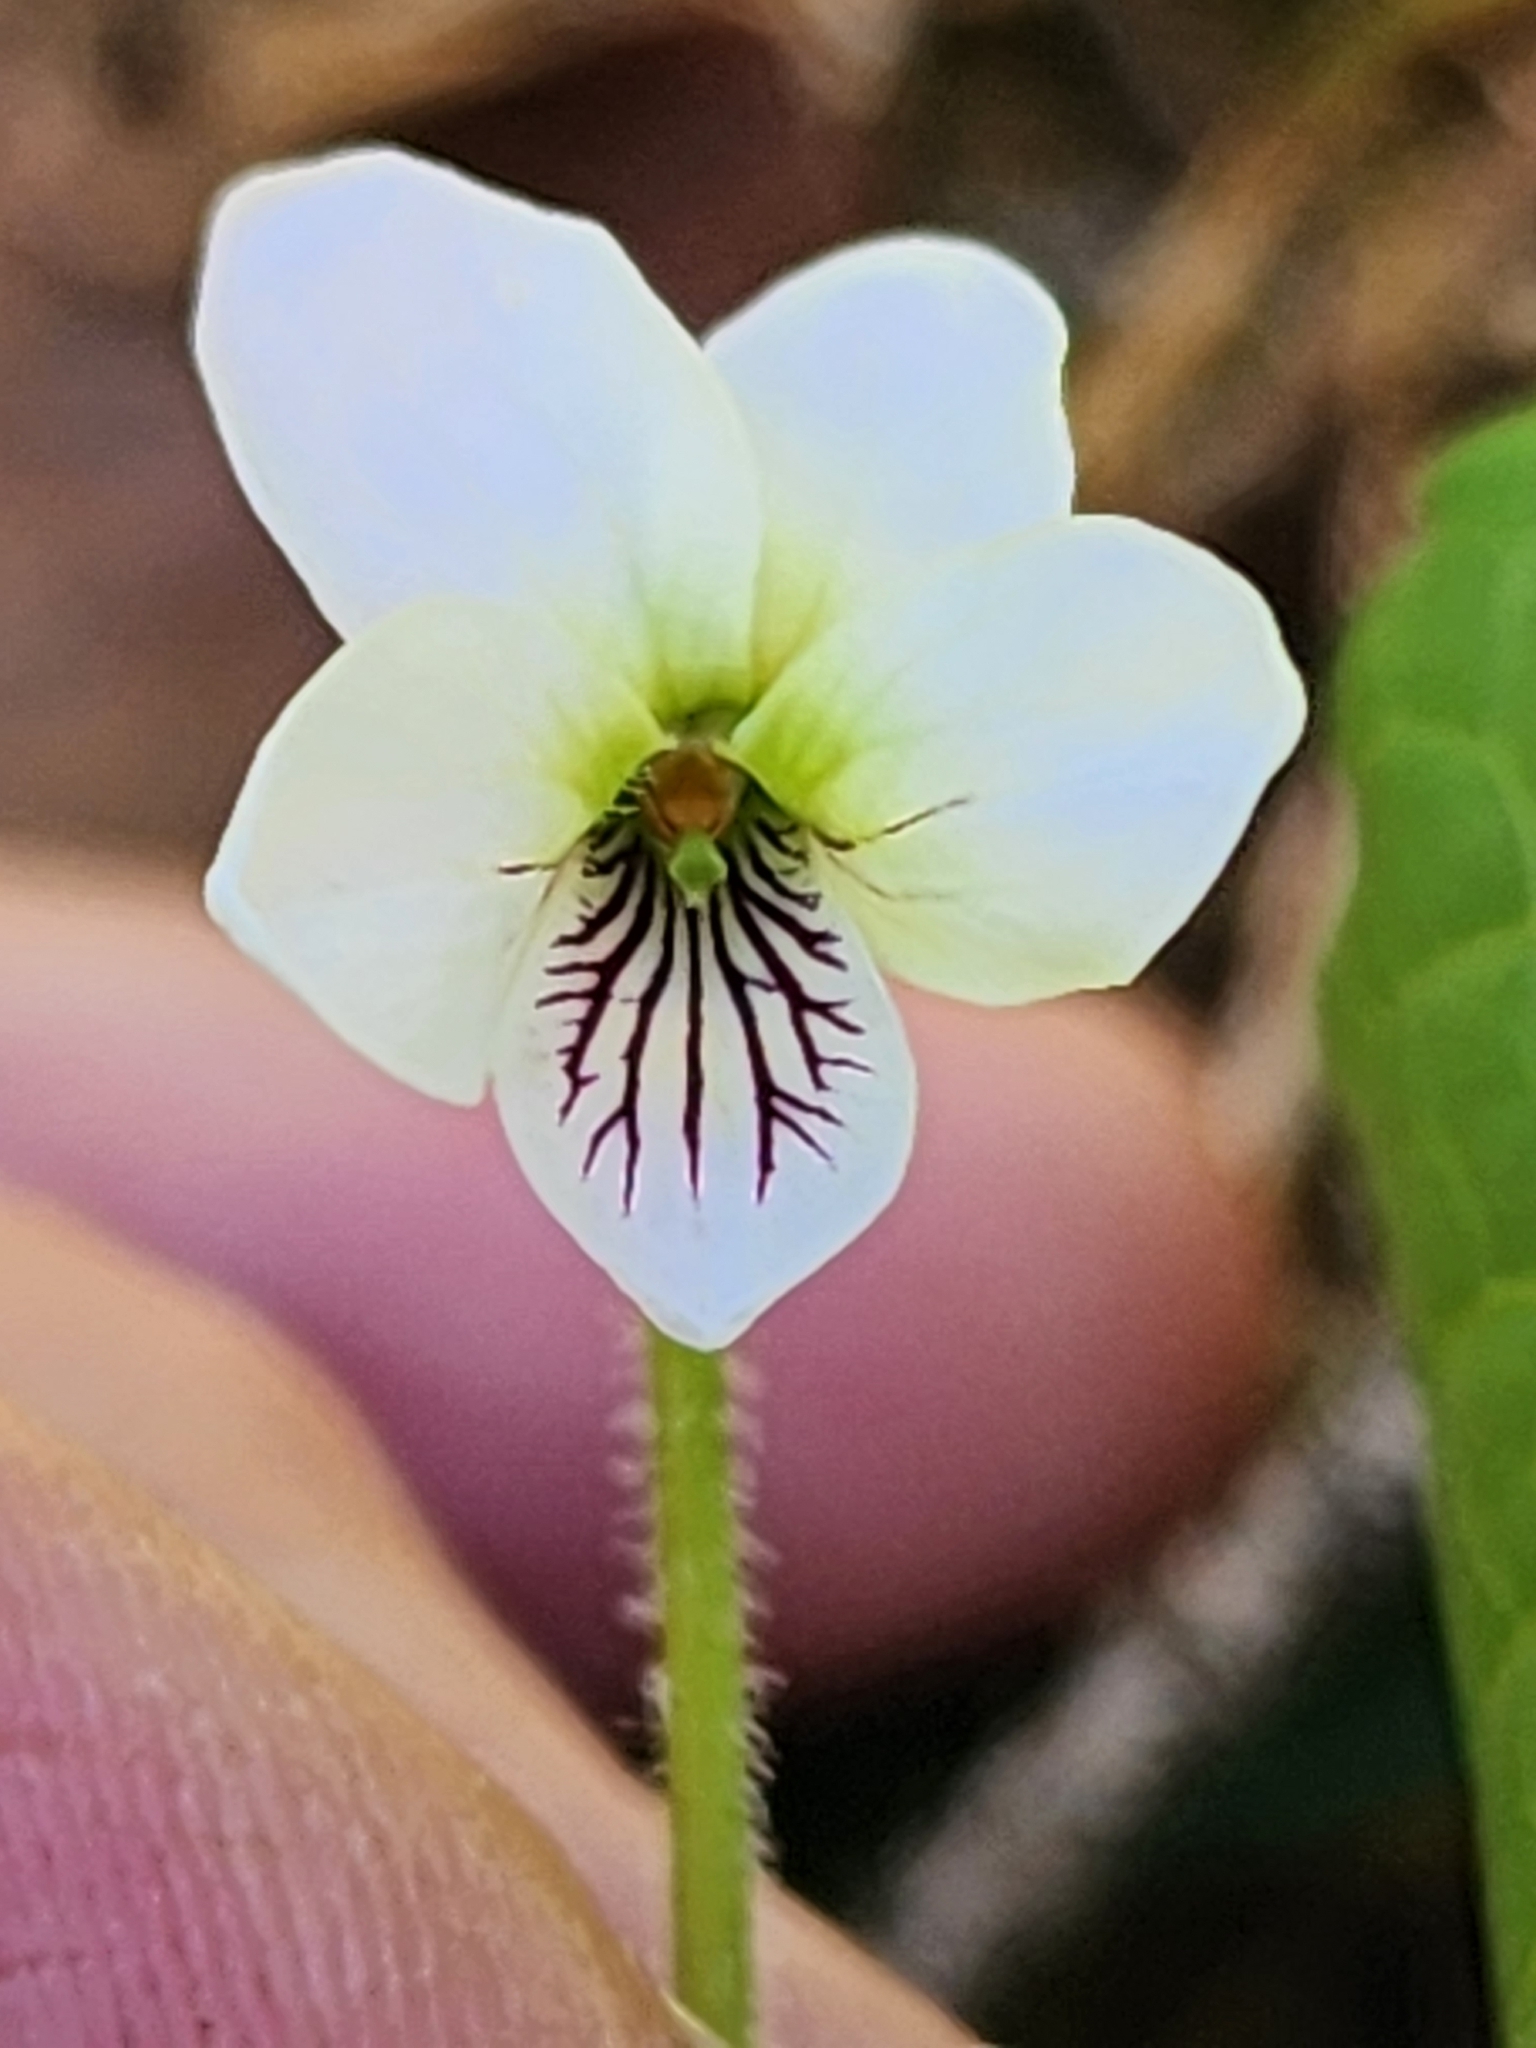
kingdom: Plantae
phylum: Tracheophyta
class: Magnoliopsida
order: Malpighiales
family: Violaceae
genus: Viola
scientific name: Viola renifolia
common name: Kidney-leaf violet
